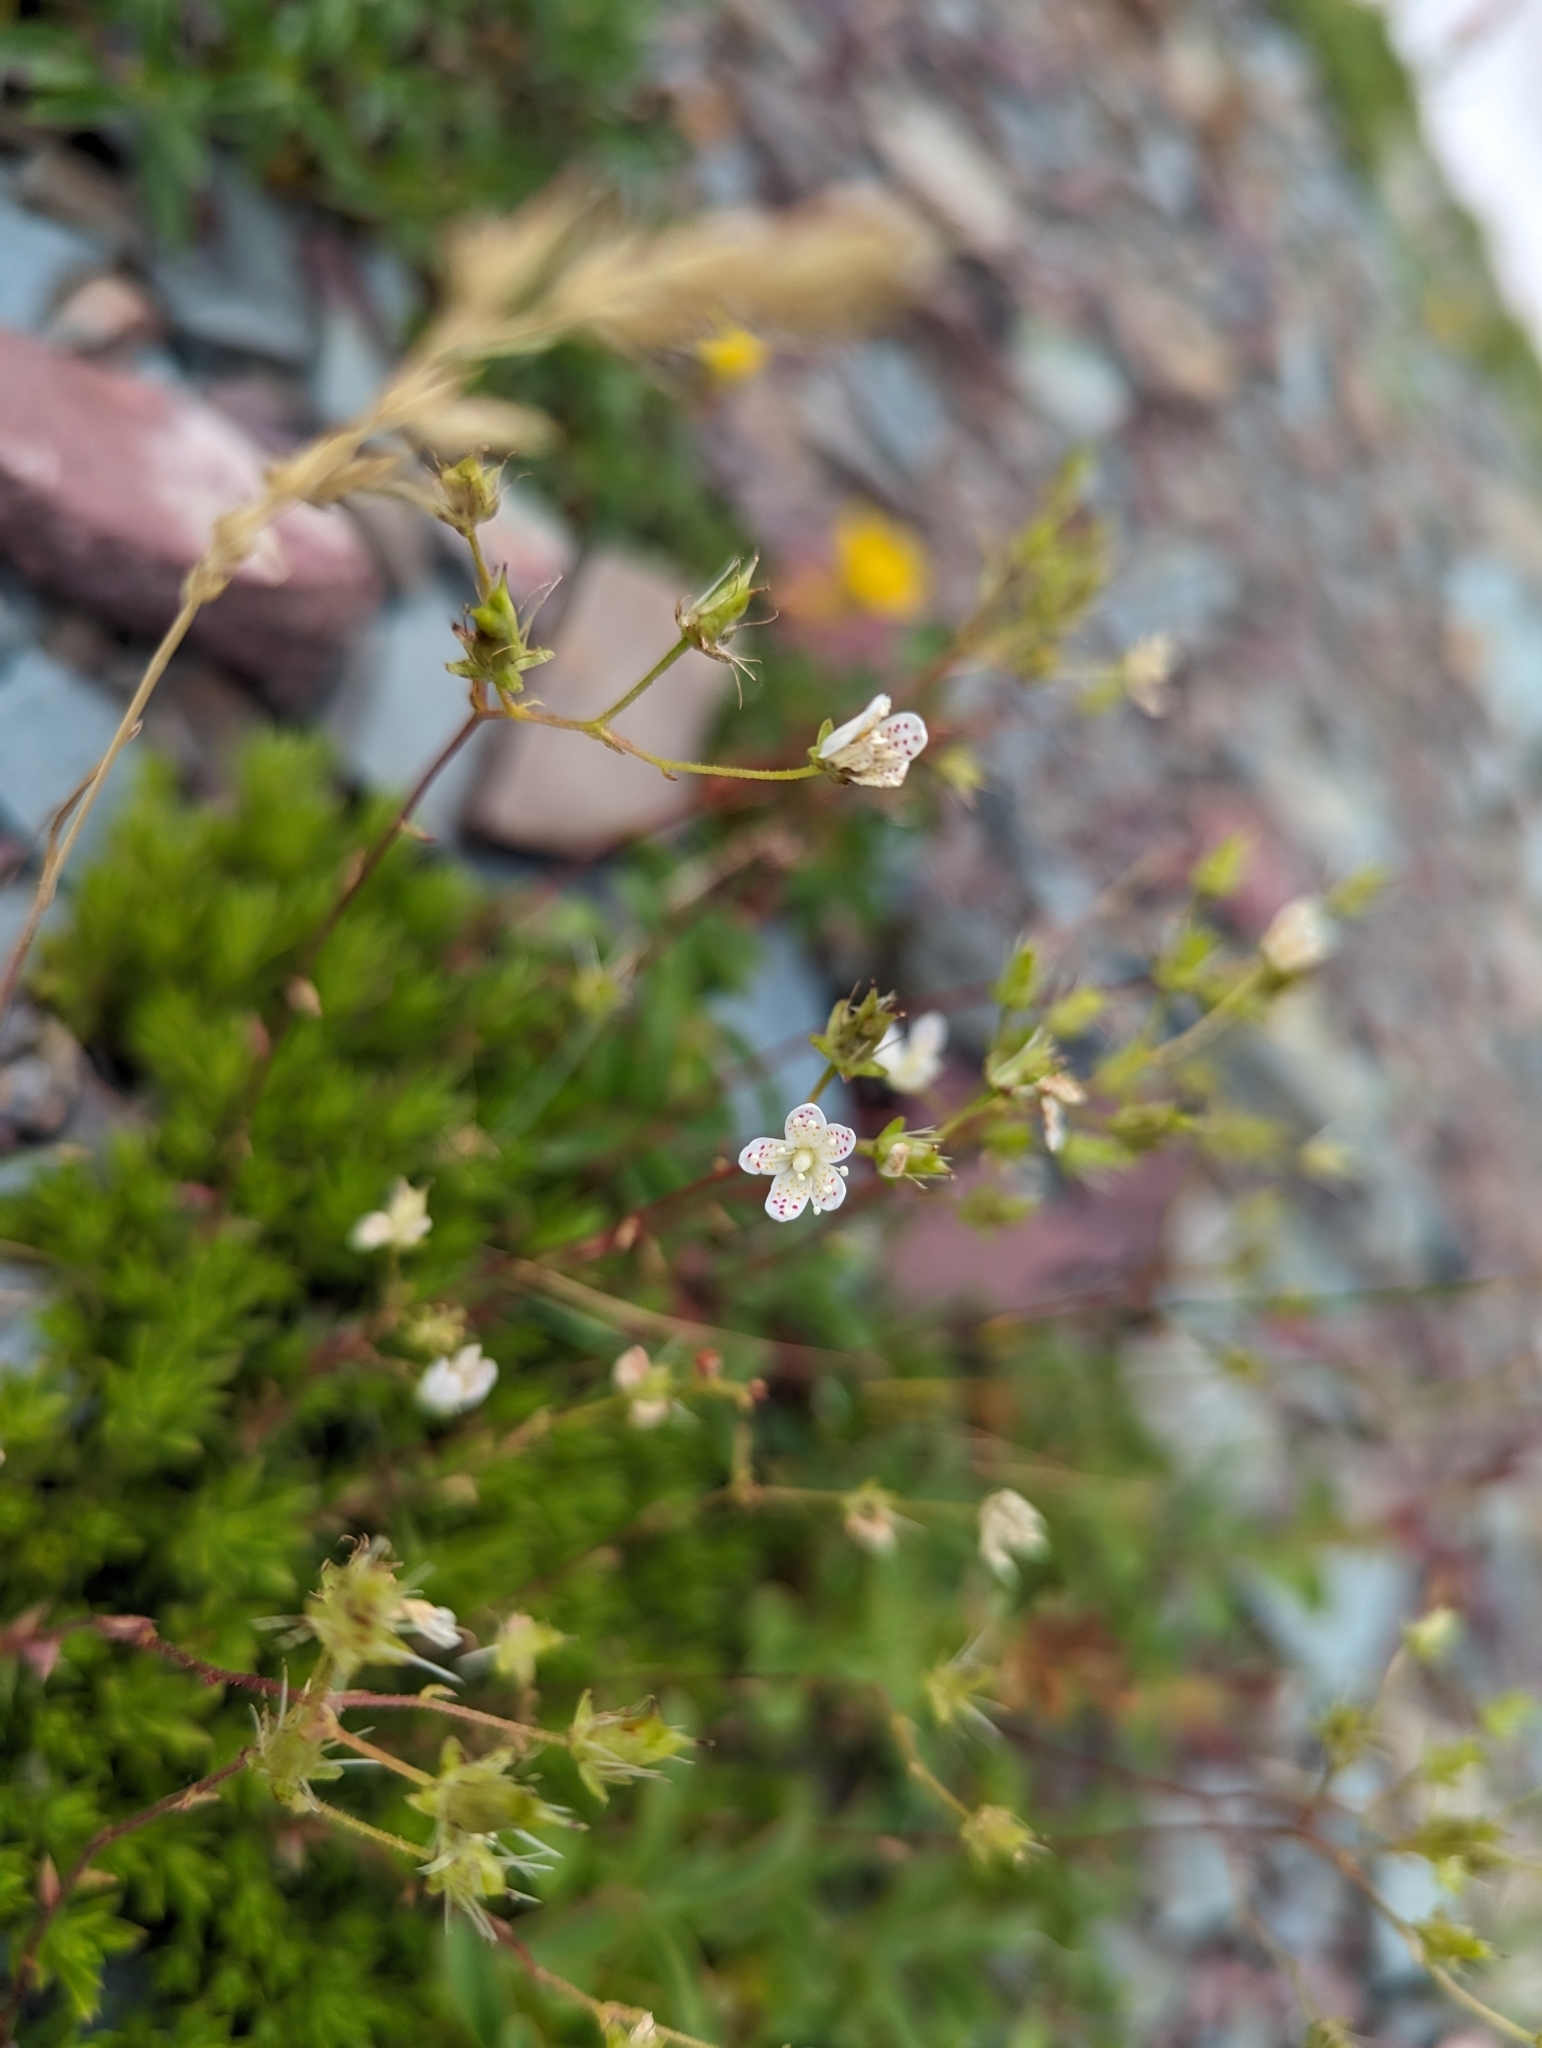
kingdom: Plantae
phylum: Tracheophyta
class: Magnoliopsida
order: Saxifragales
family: Saxifragaceae
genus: Saxifraga
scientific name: Saxifraga bronchialis
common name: Matted saxifrage
